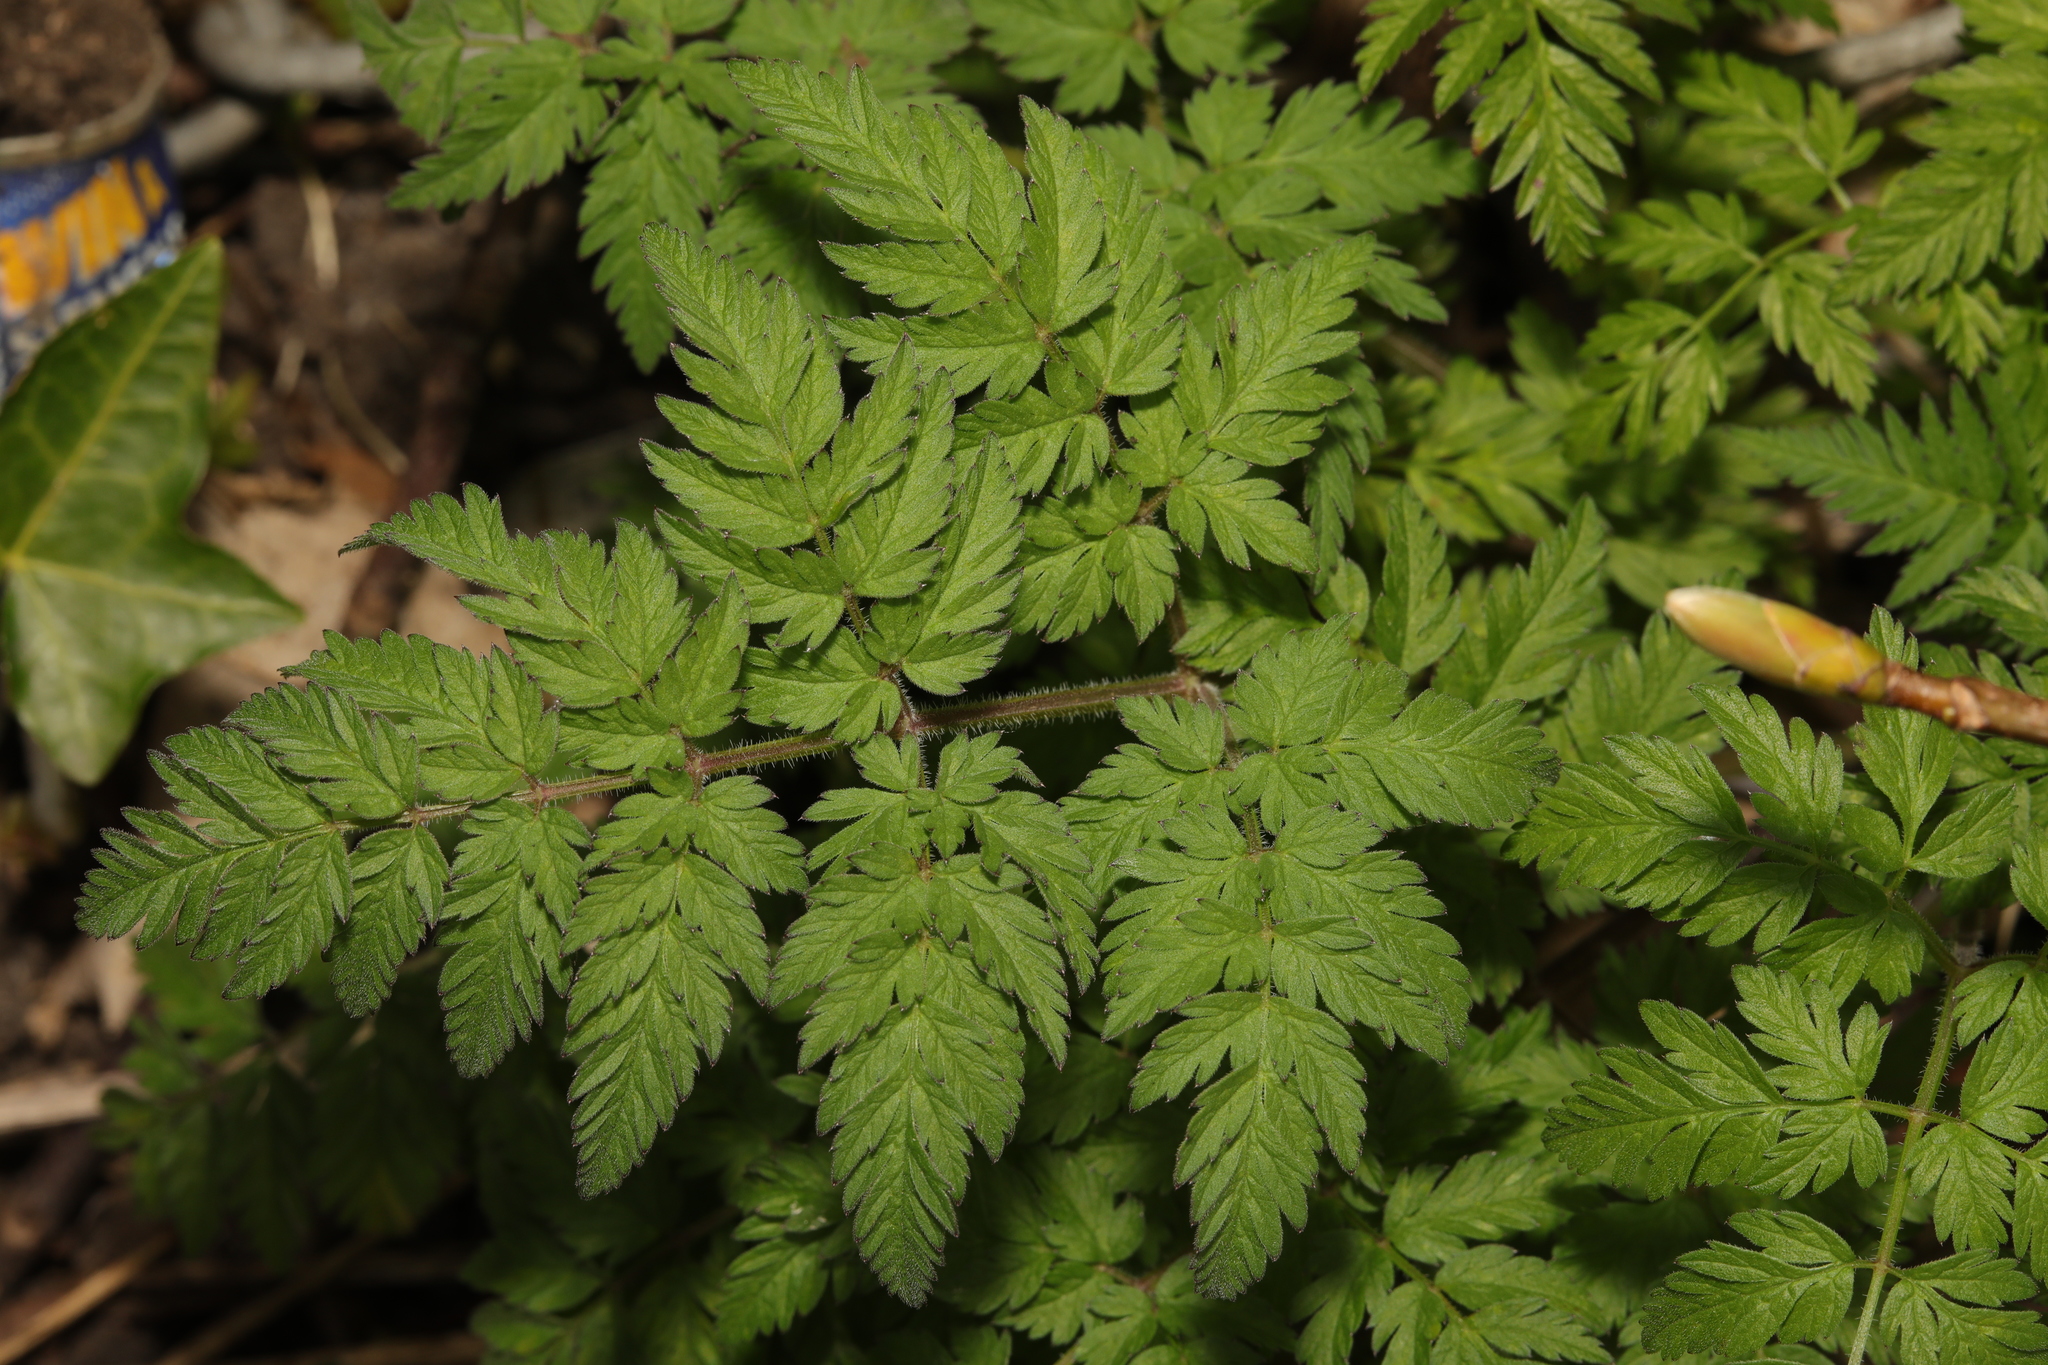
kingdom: Plantae
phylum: Tracheophyta
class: Magnoliopsida
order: Apiales
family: Apiaceae
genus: Anthriscus
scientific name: Anthriscus sylvestris
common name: Cow parsley
